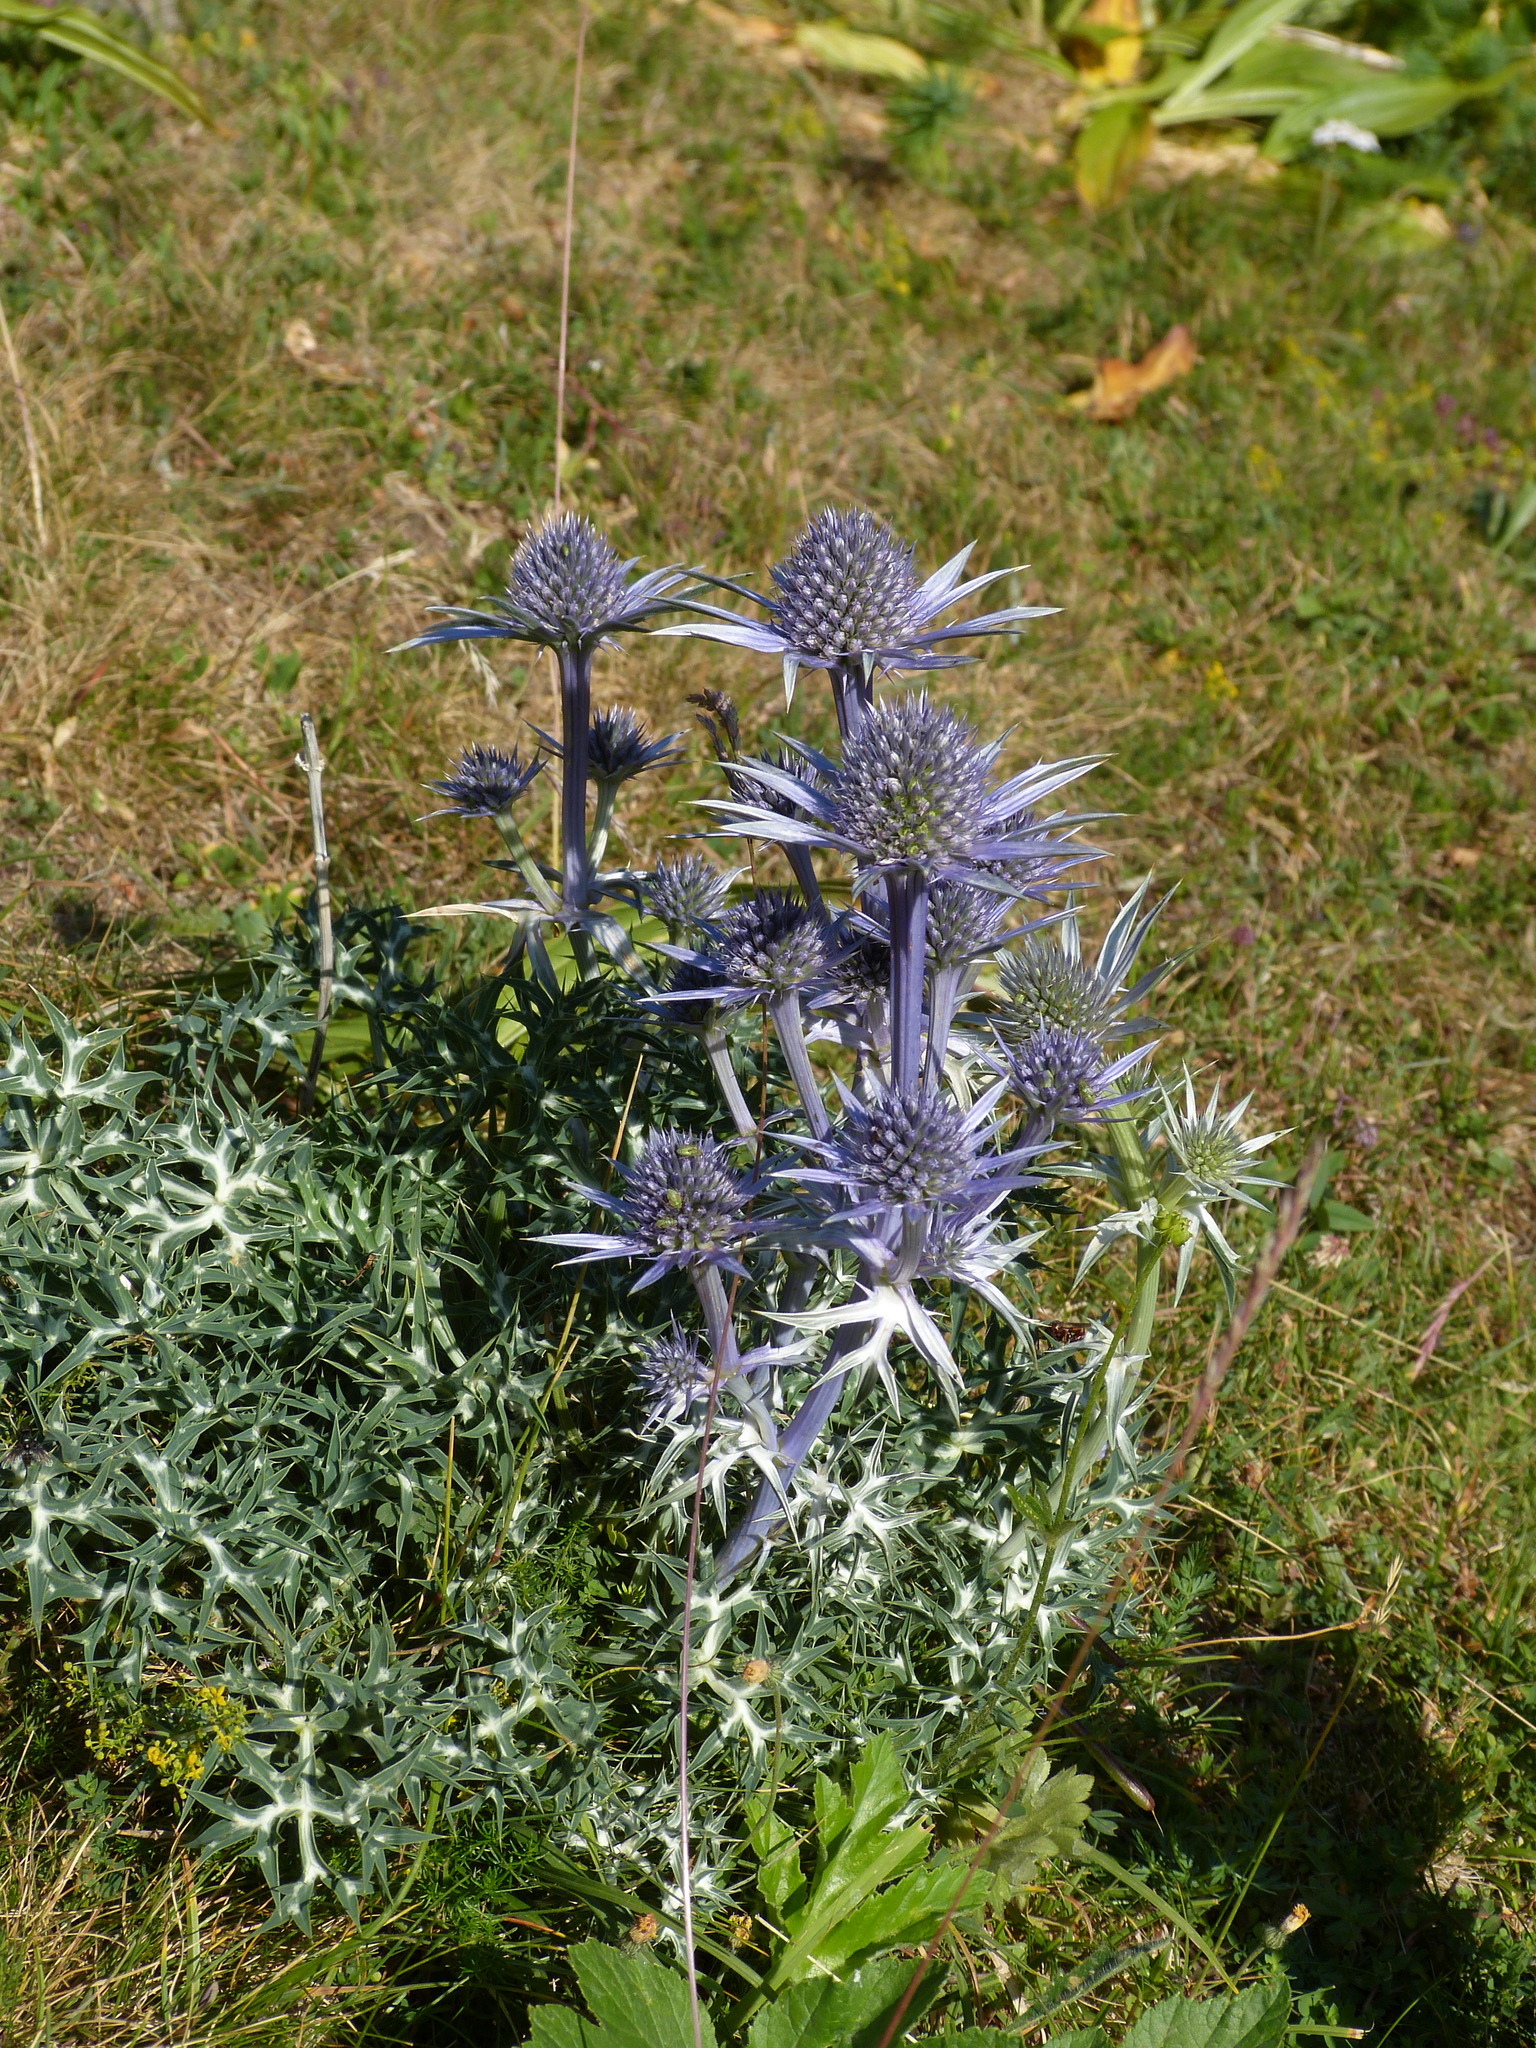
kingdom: Plantae
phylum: Tracheophyta
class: Magnoliopsida
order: Apiales
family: Apiaceae
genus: Eryngium
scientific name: Eryngium bourgatii
